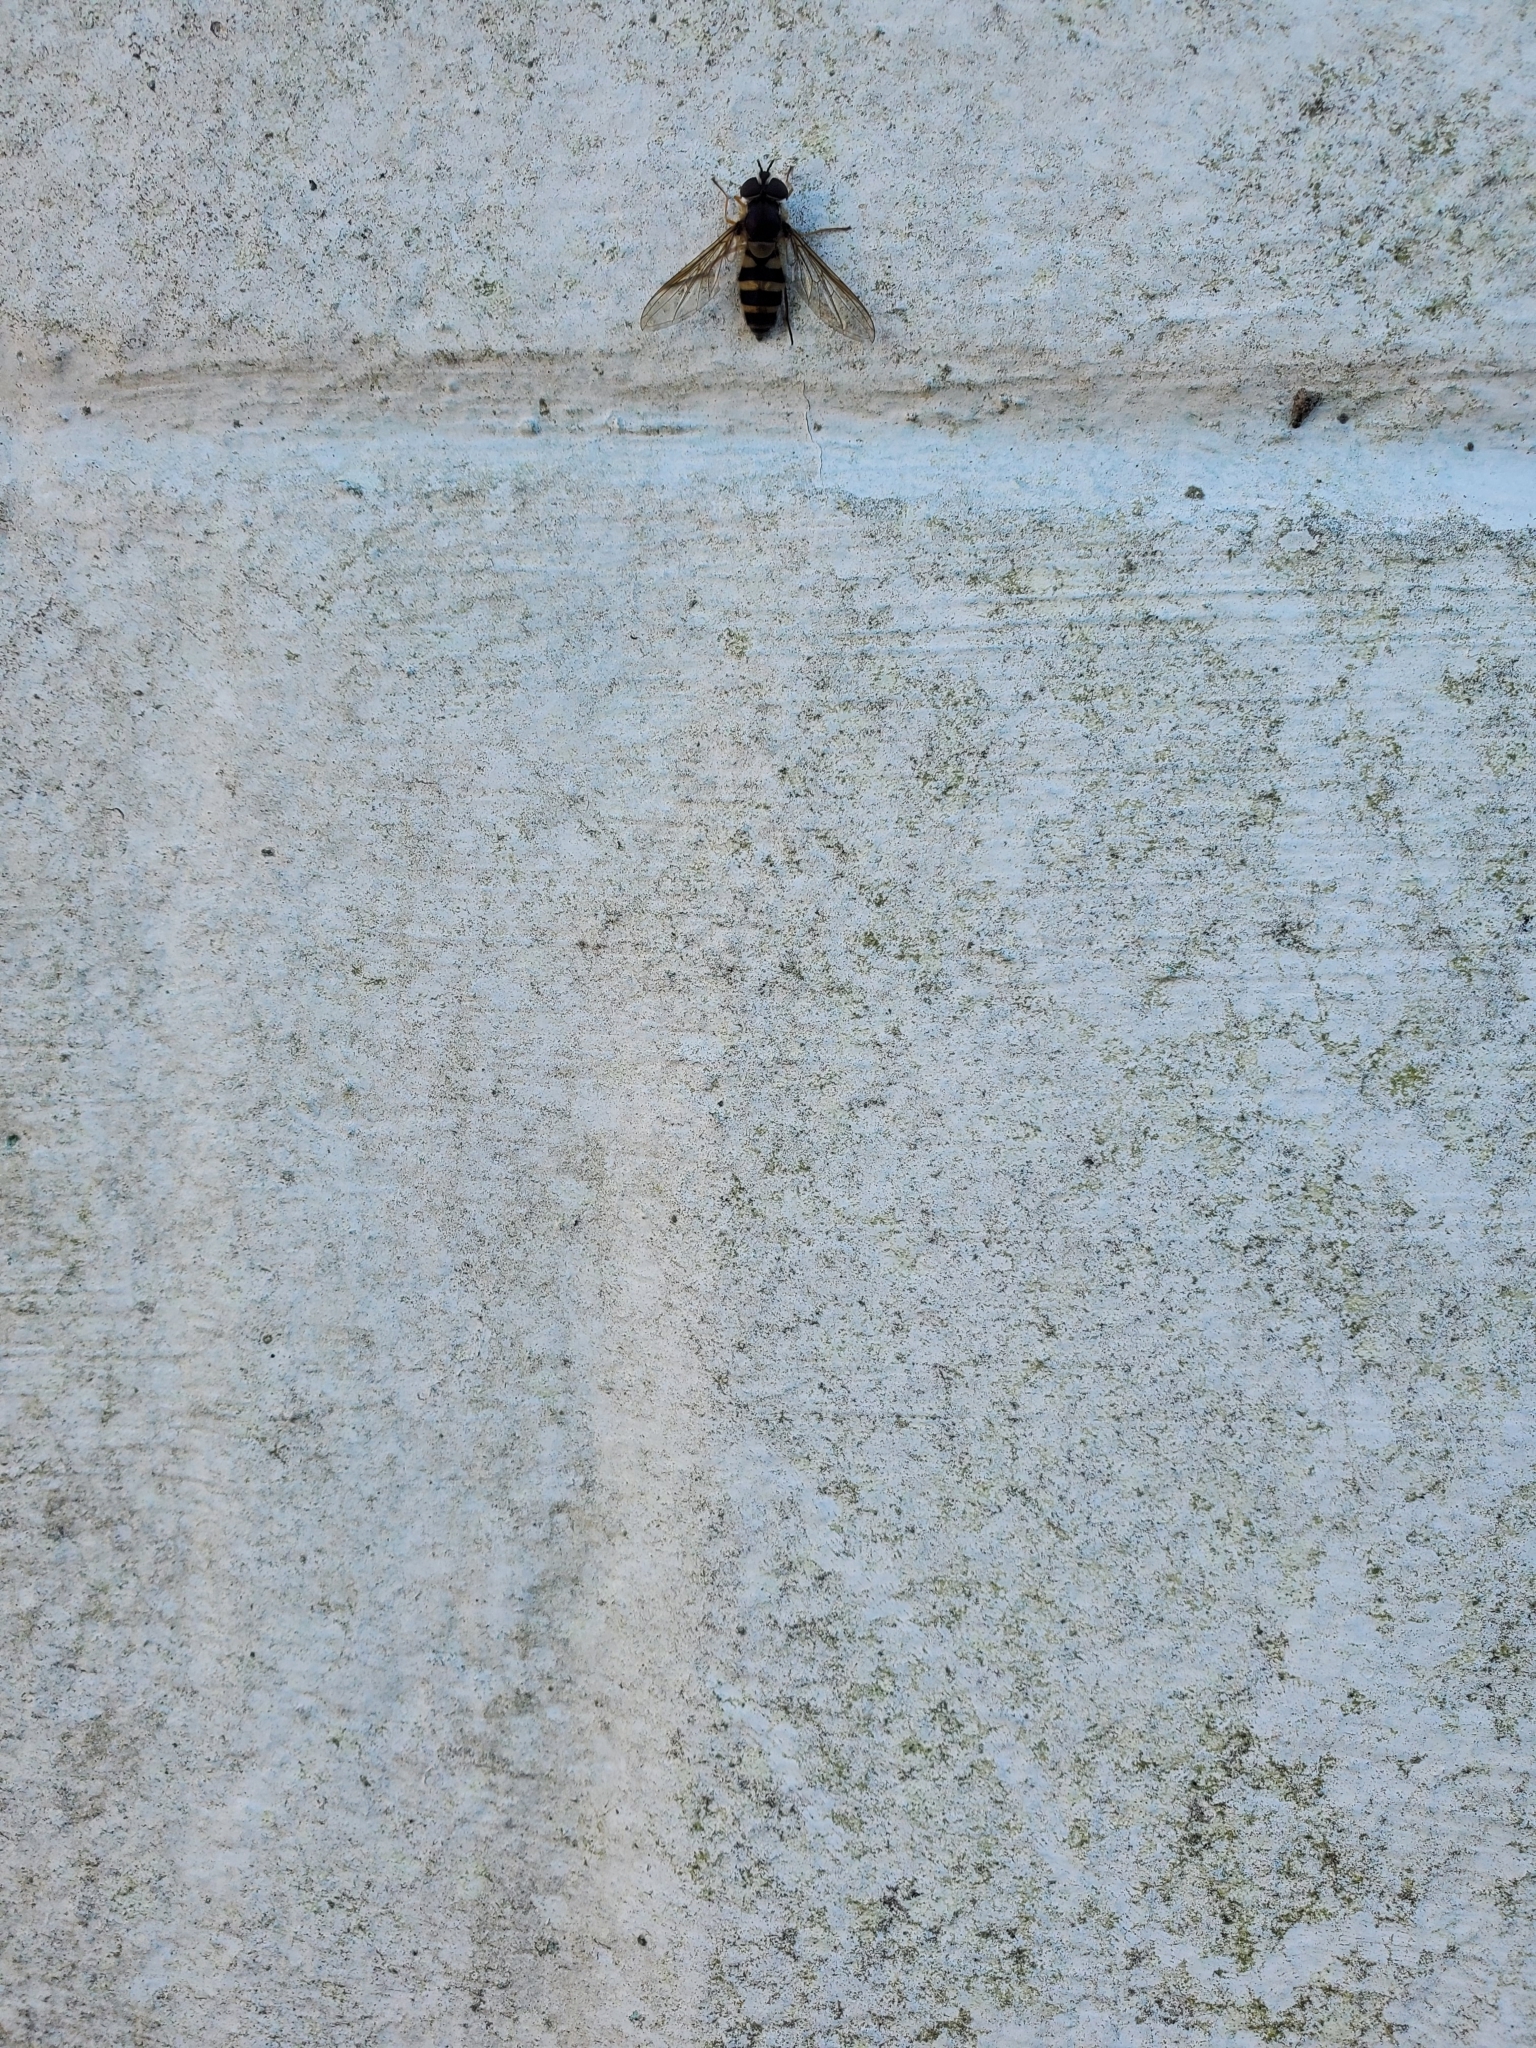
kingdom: Animalia
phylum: Arthropoda
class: Insecta
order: Diptera
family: Syrphidae
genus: Epistrophe
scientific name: Epistrophe grossulariae
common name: Black-horned smoothtail
